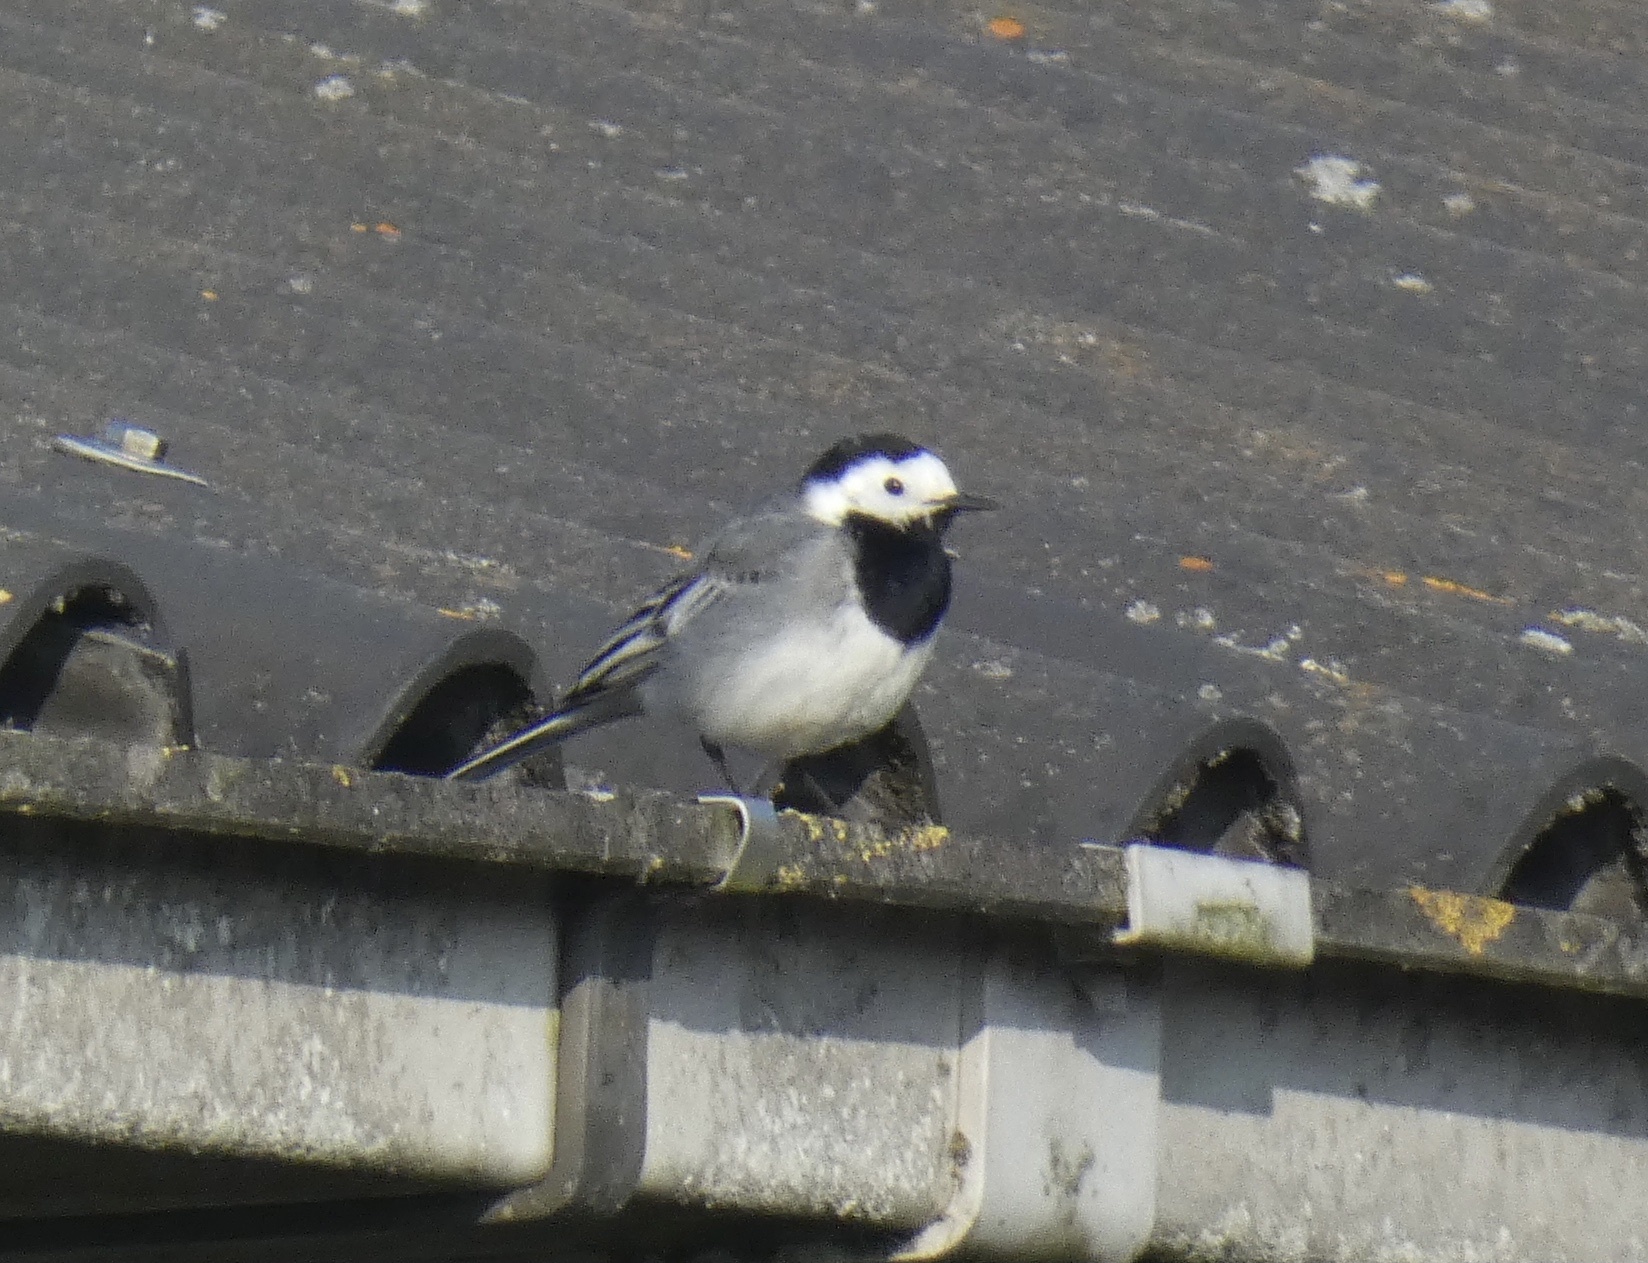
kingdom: Animalia
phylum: Chordata
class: Aves
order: Passeriformes
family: Motacillidae
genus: Motacilla
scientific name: Motacilla alba
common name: White wagtail
